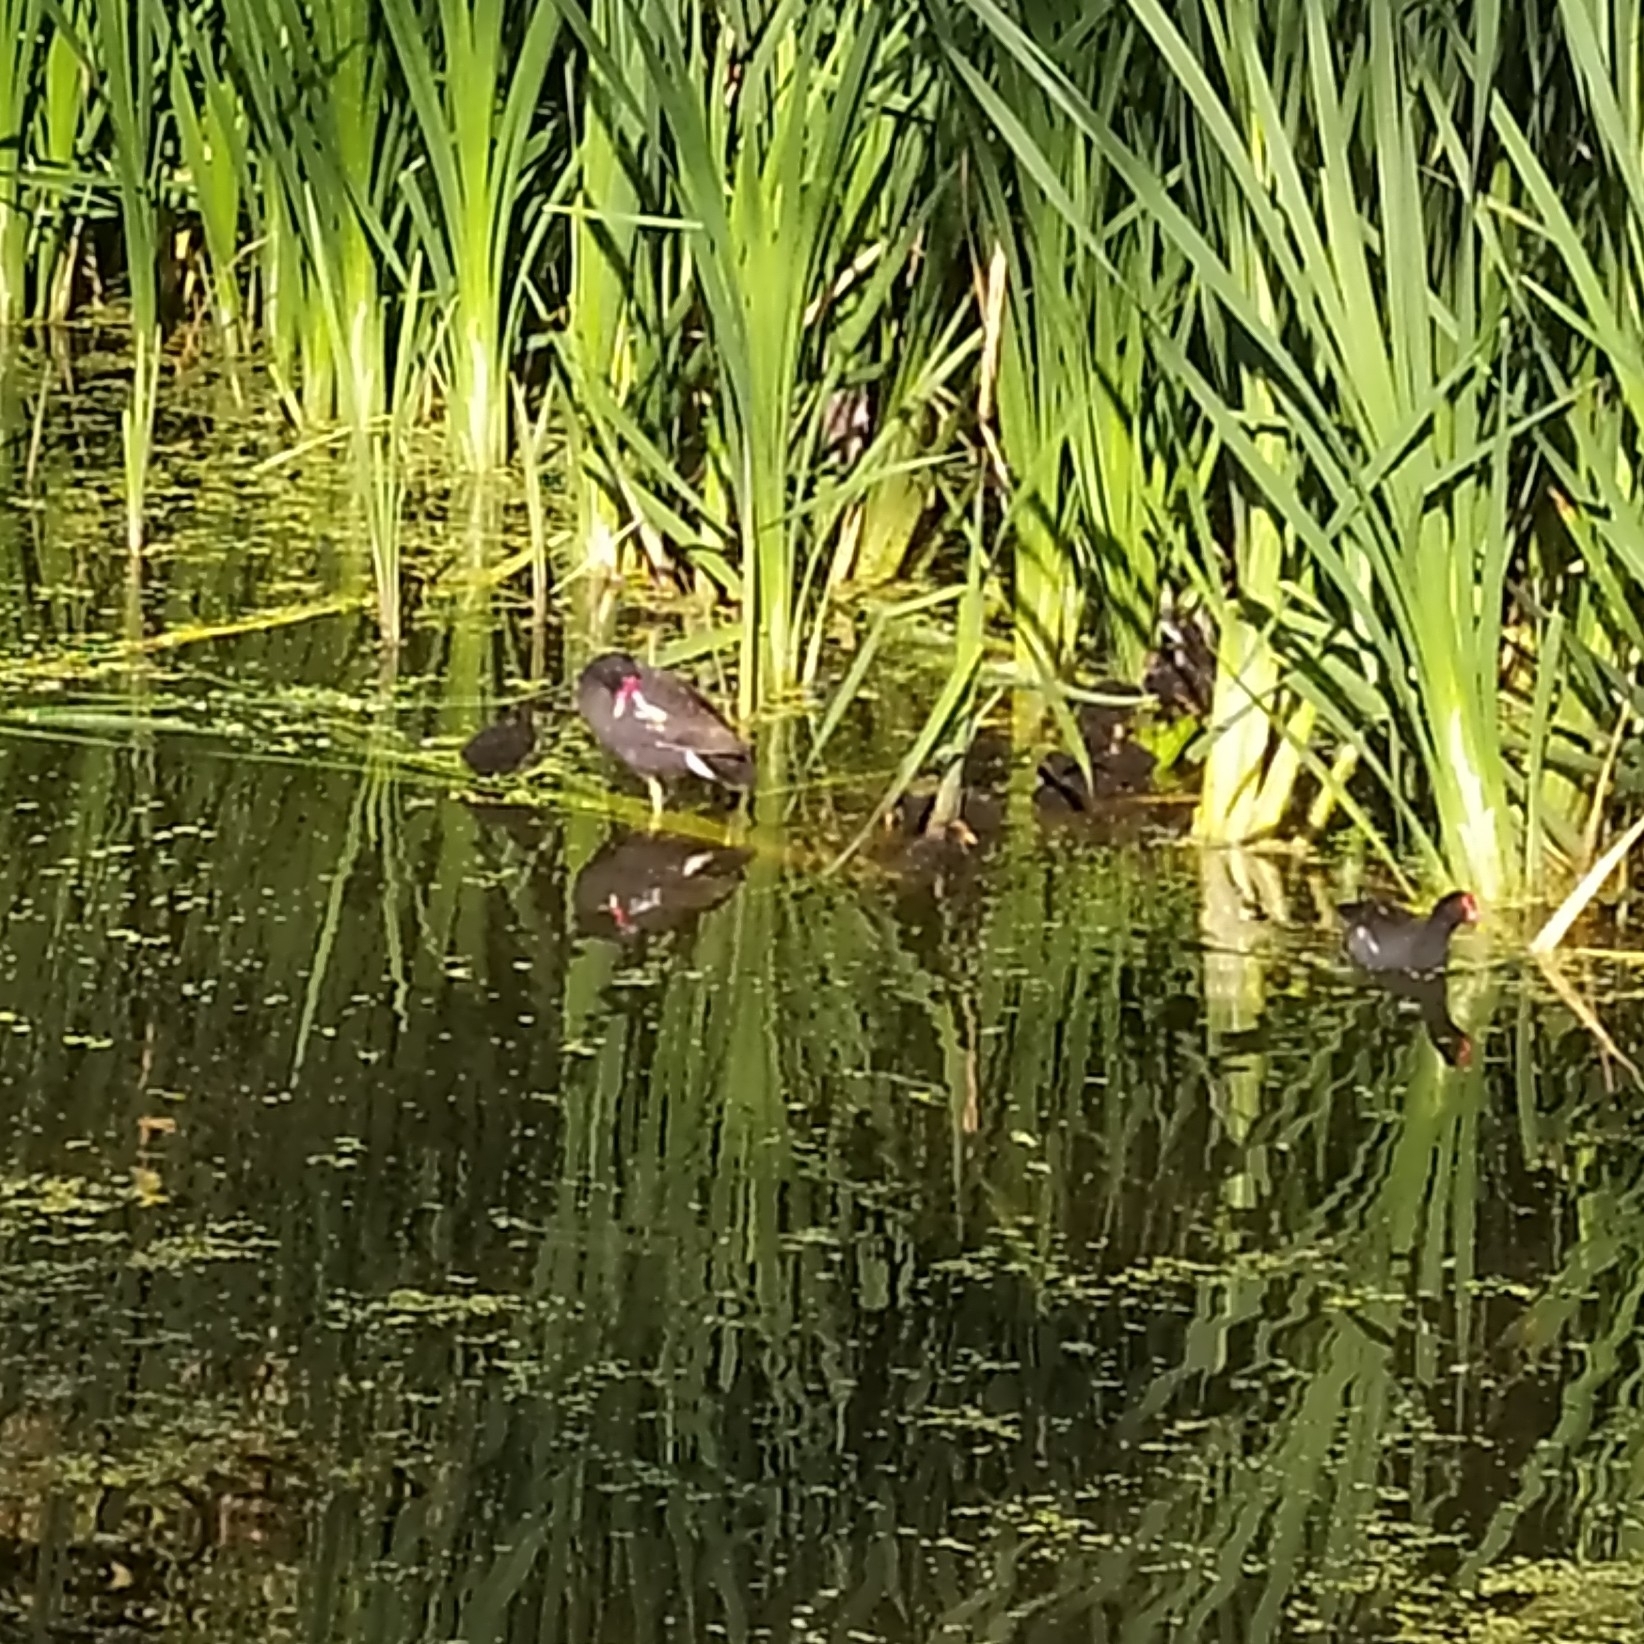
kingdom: Animalia
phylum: Chordata
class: Aves
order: Gruiformes
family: Rallidae
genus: Gallinula
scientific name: Gallinula chloropus
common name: Common moorhen
